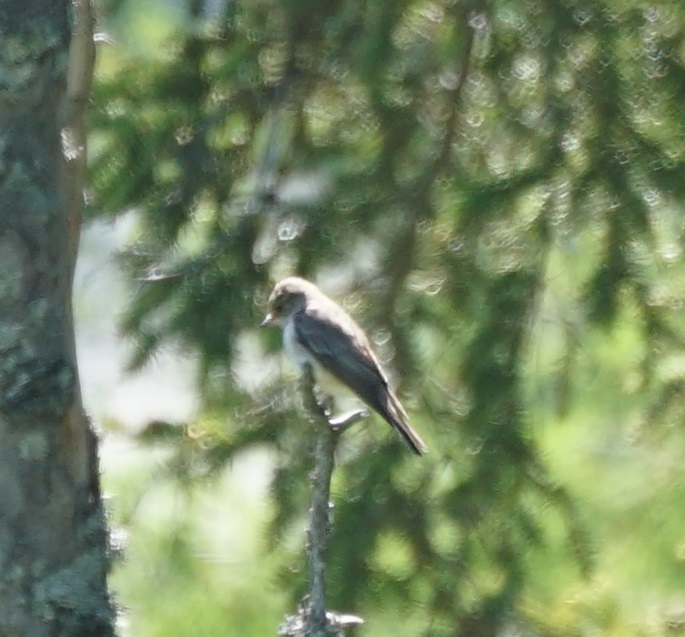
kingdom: Animalia
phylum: Chordata
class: Aves
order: Passeriformes
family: Muscicapidae
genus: Muscicapa
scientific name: Muscicapa striata
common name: Spotted flycatcher
